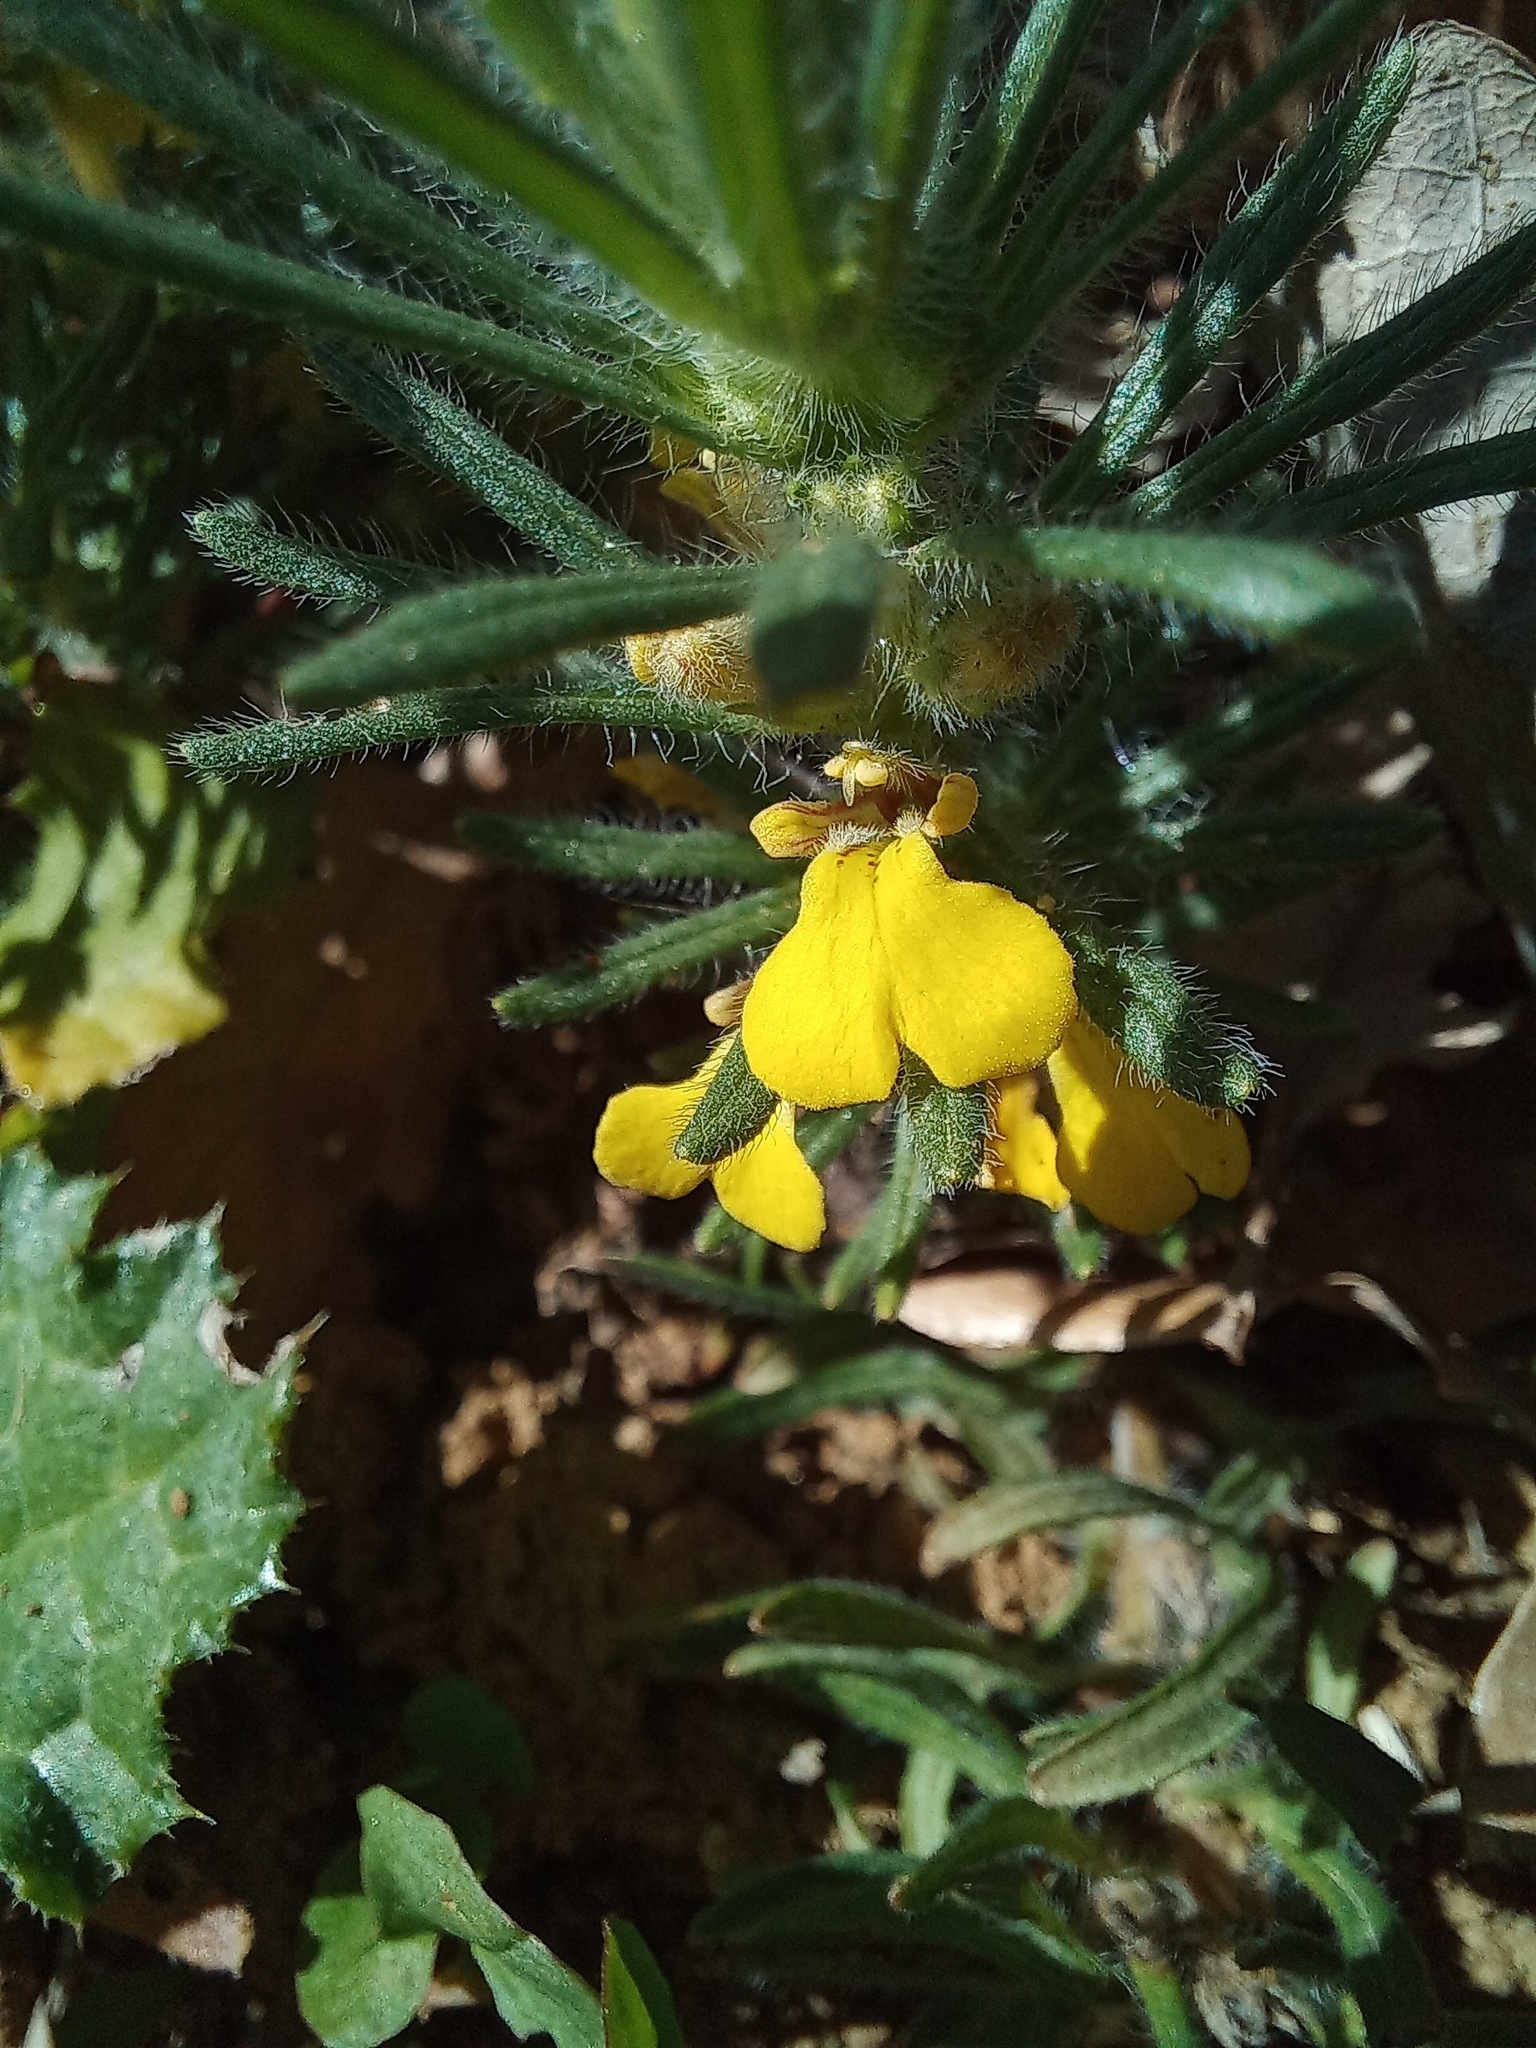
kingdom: Plantae
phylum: Tracheophyta
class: Magnoliopsida
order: Lamiales
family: Lamiaceae
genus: Ajuga
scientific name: Ajuga chamaepitys
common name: Ground-pine
